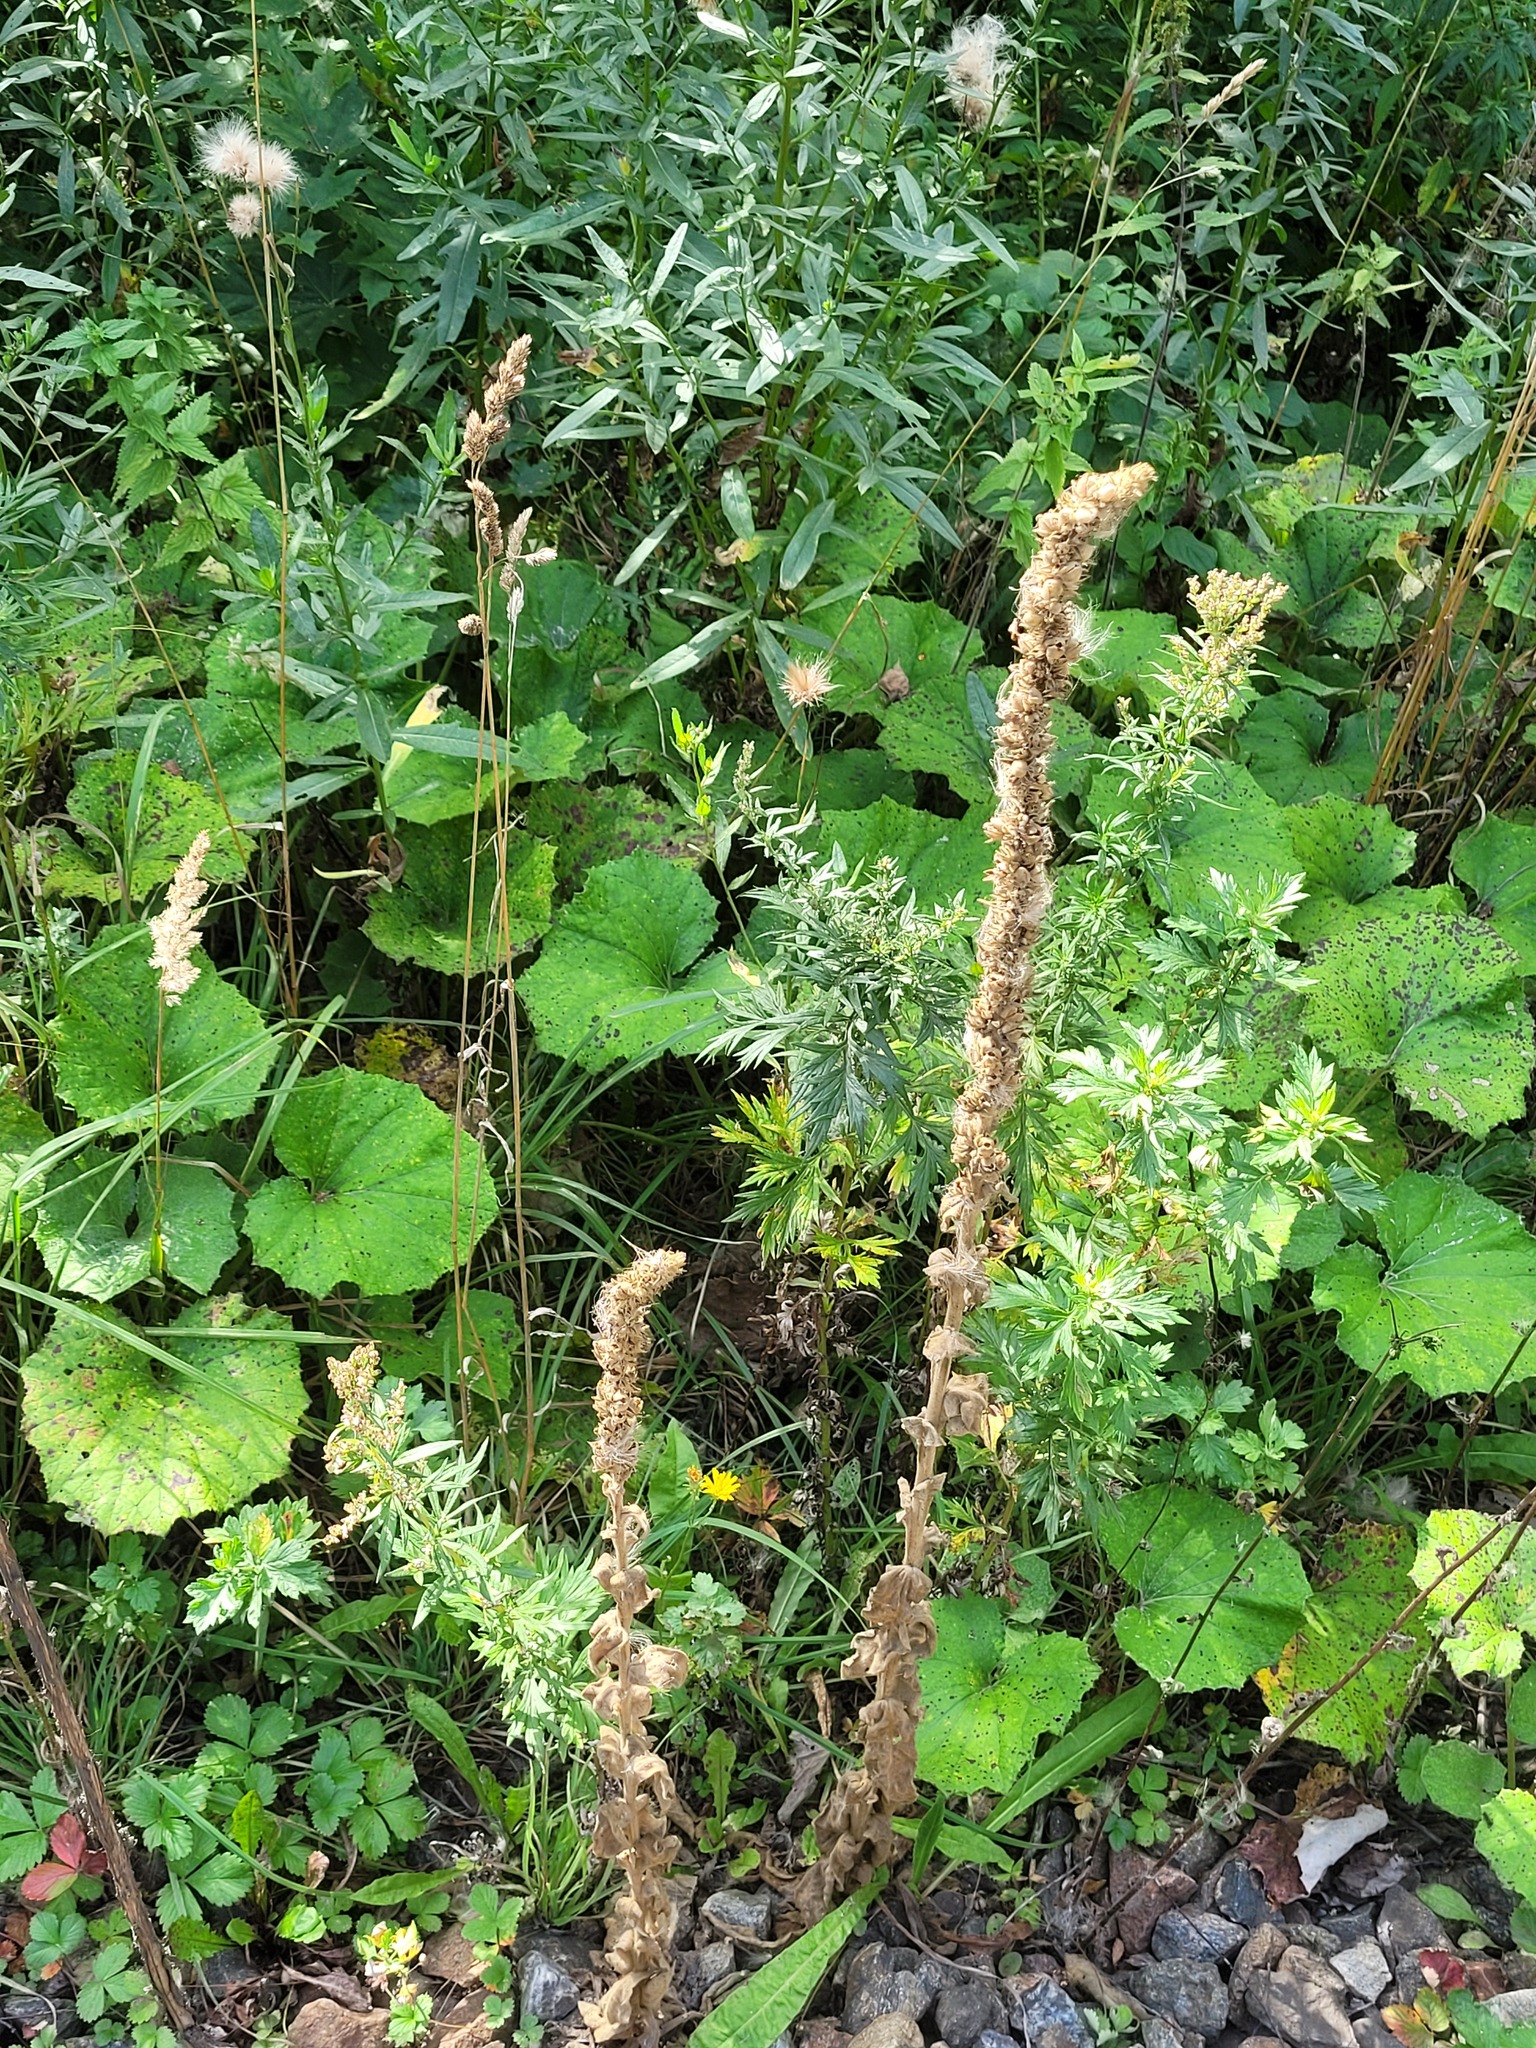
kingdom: Plantae
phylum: Tracheophyta
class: Magnoliopsida
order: Lamiales
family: Scrophulariaceae
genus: Verbascum
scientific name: Verbascum thapsus
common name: Common mullein
